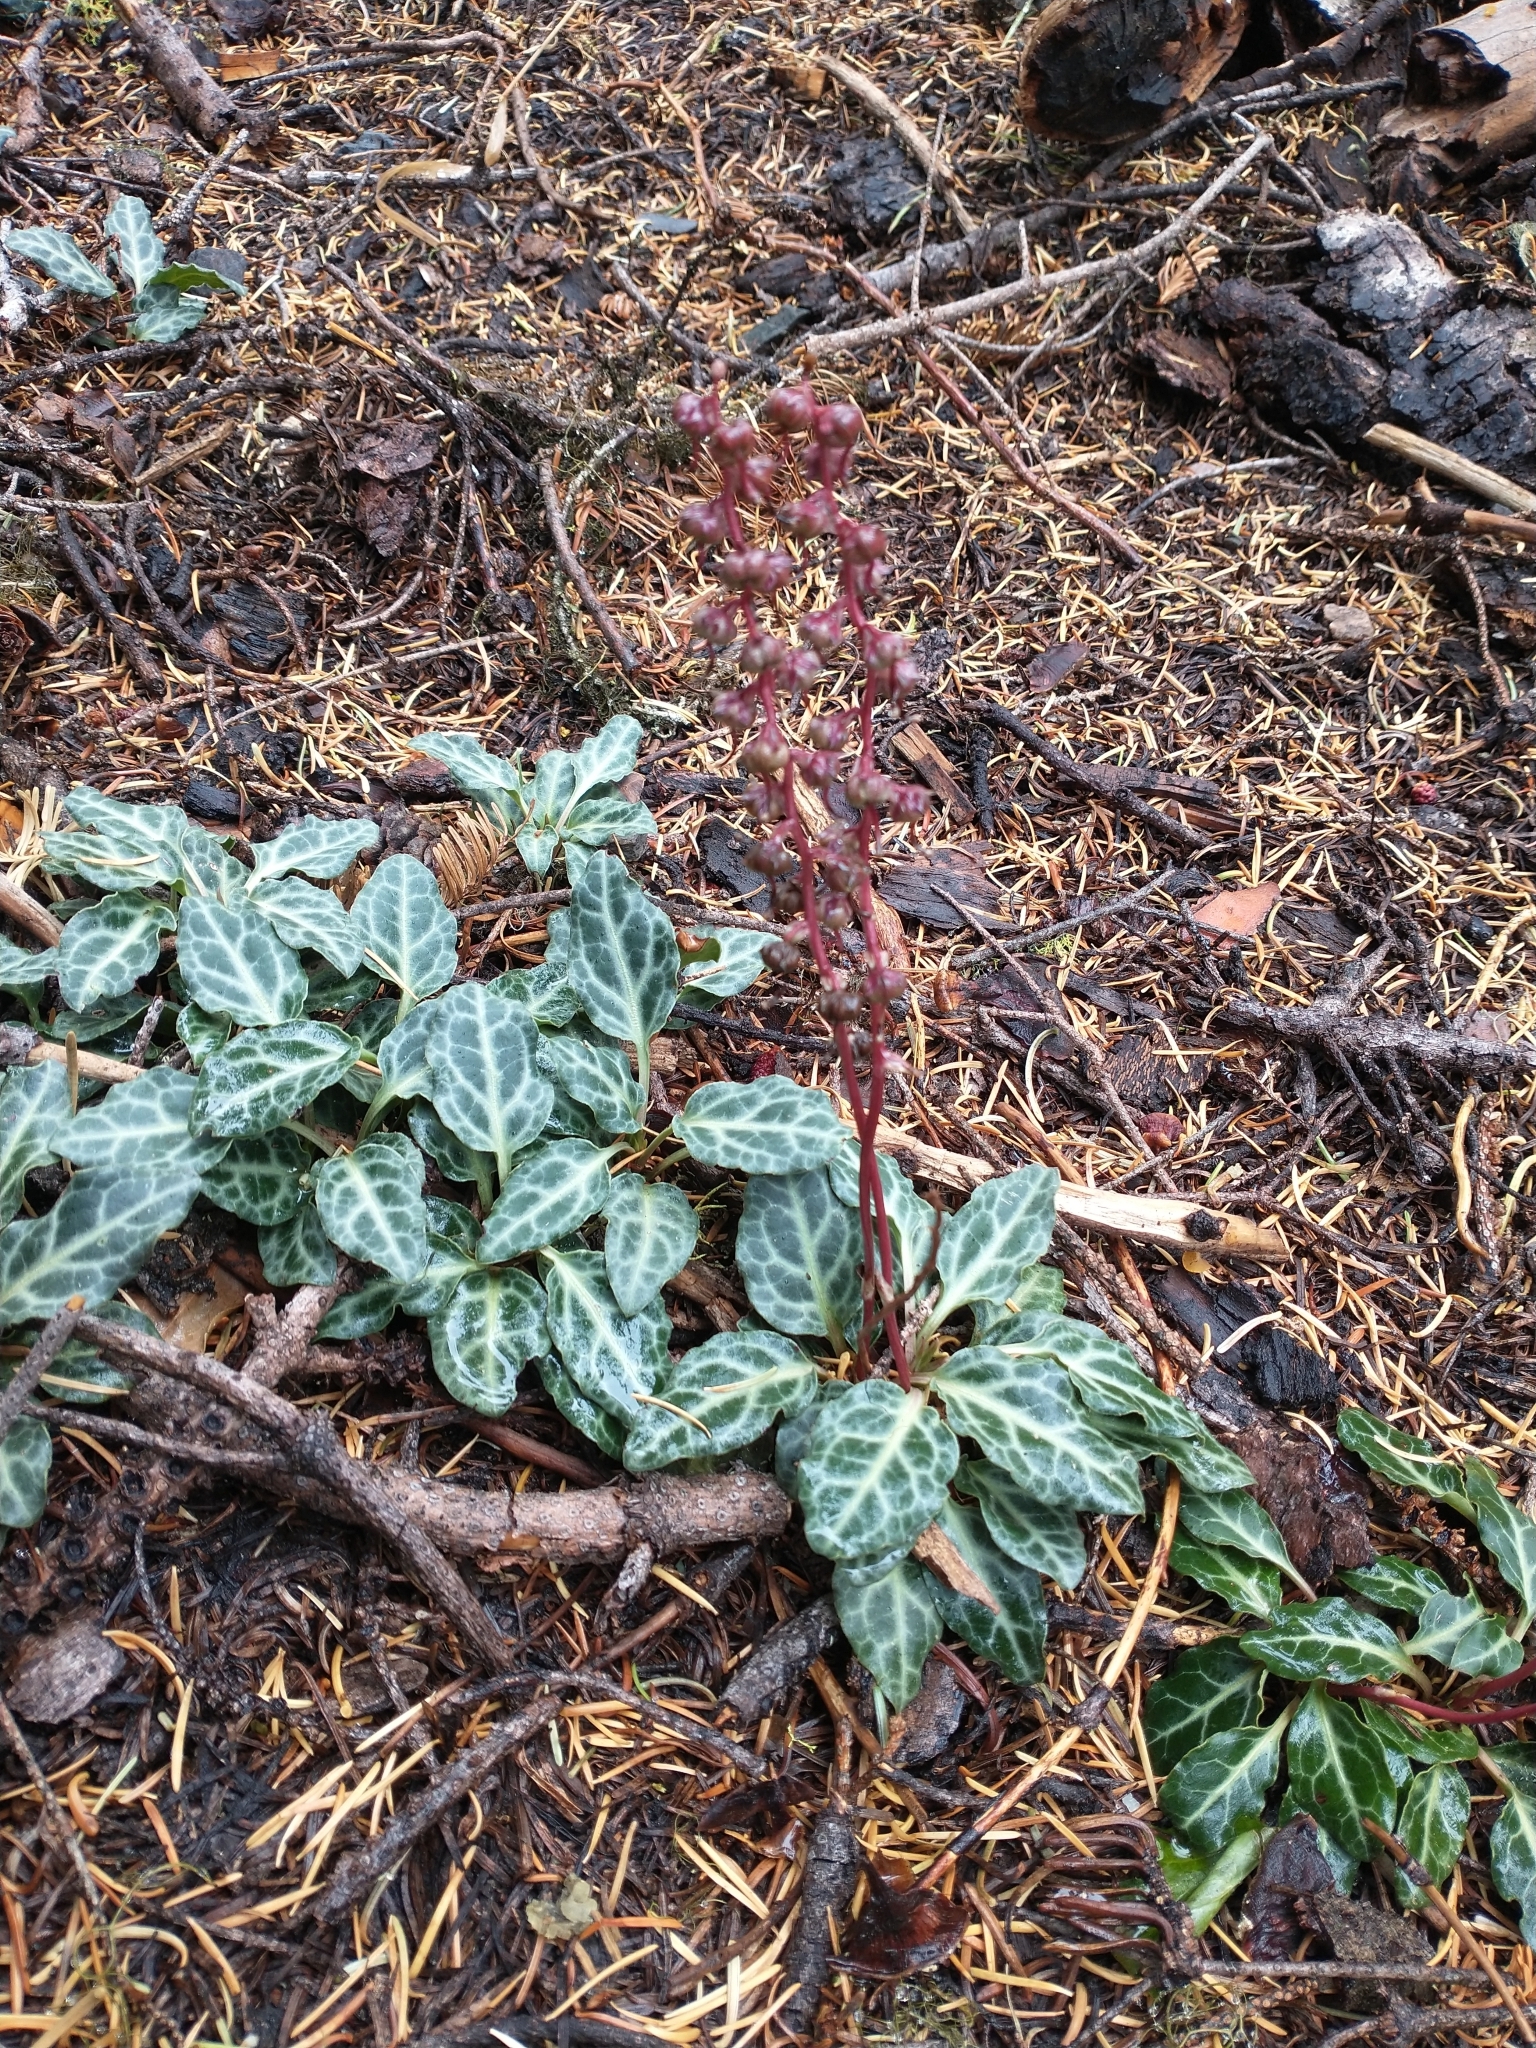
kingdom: Plantae
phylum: Tracheophyta
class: Magnoliopsida
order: Ericales
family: Ericaceae
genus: Pyrola
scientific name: Pyrola crypta
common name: Cryptic pyrola
